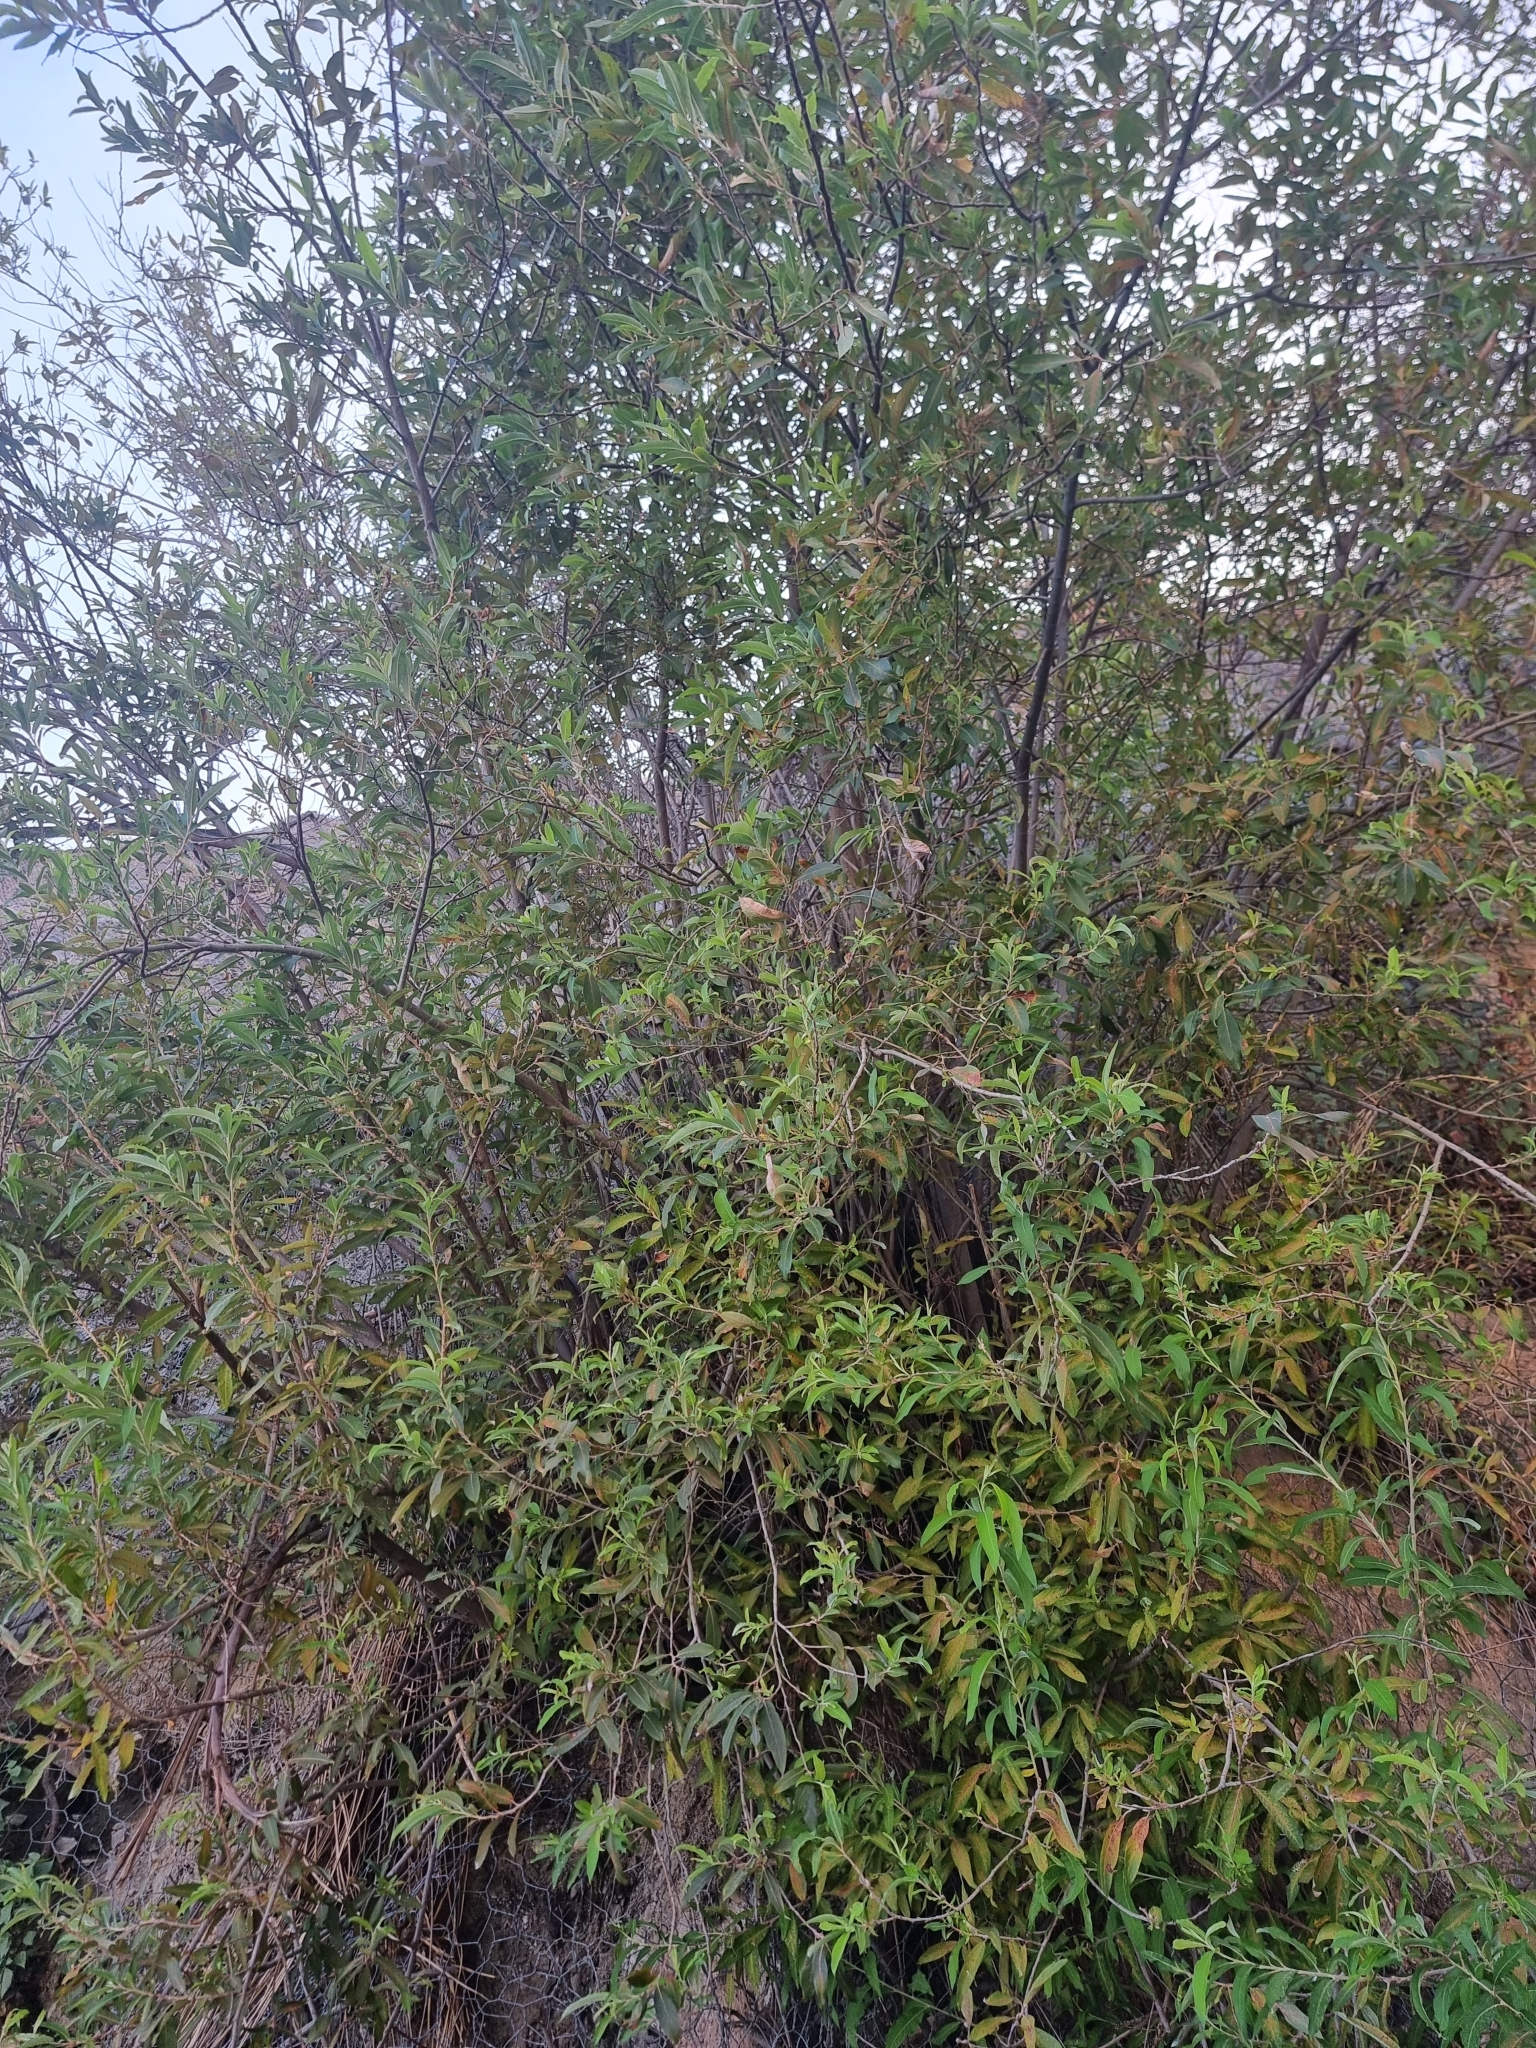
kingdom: Plantae
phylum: Tracheophyta
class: Magnoliopsida
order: Malpighiales
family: Salicaceae
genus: Salix
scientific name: Salix canariensis
